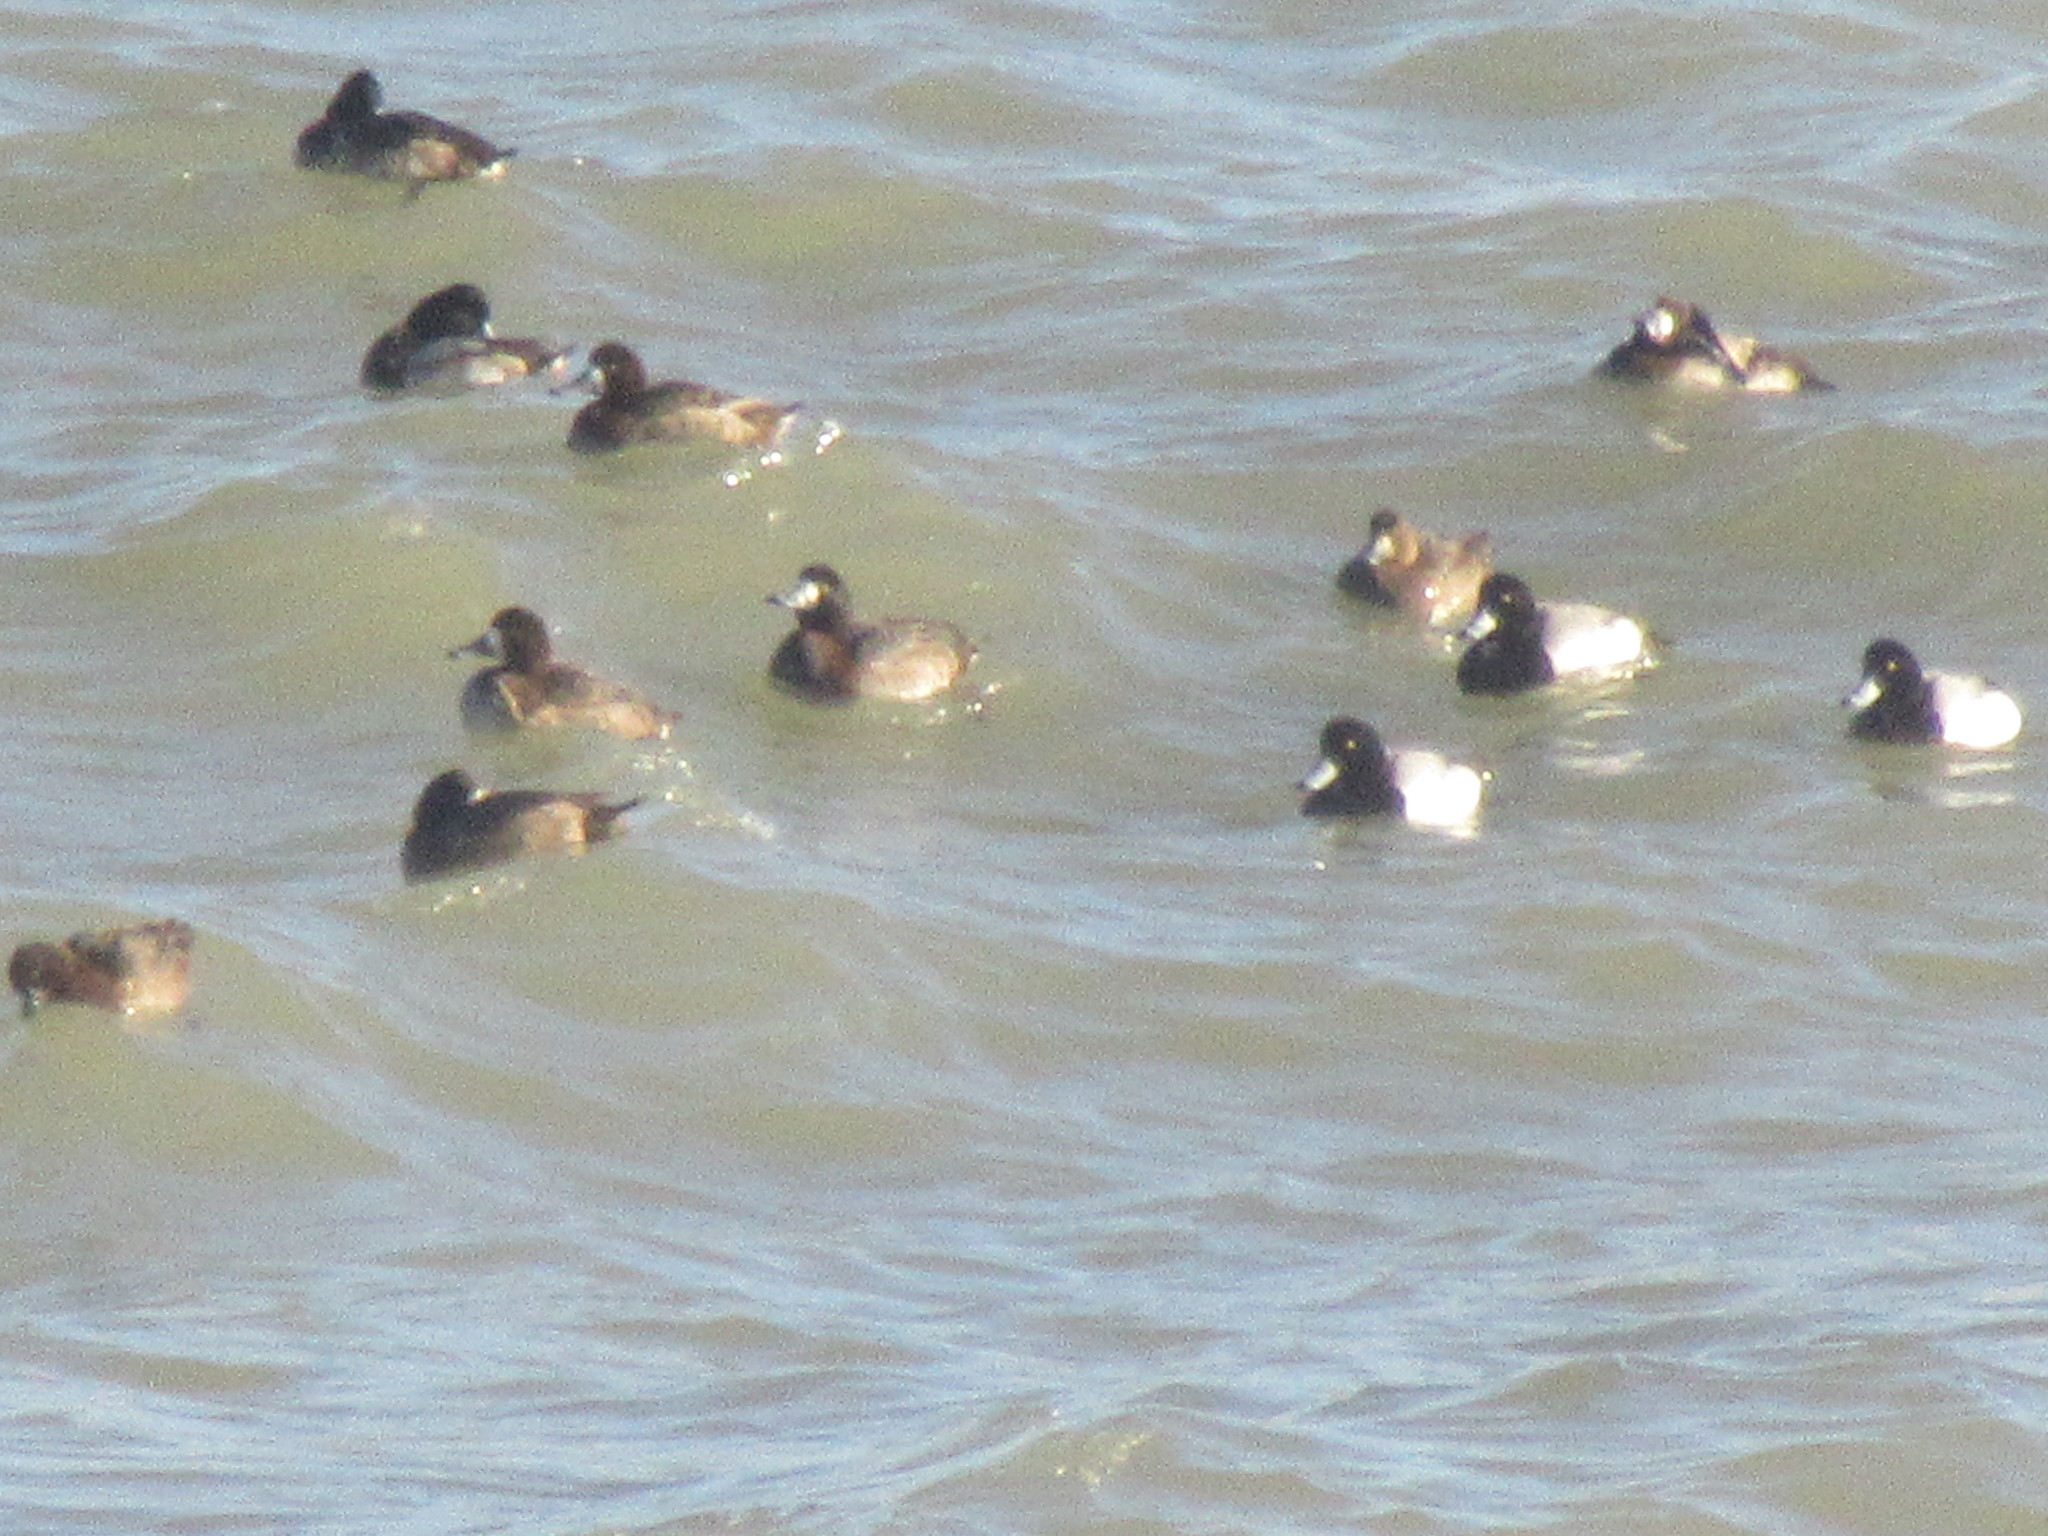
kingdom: Animalia
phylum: Chordata
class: Aves
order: Anseriformes
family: Anatidae
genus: Aythya
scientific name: Aythya marila
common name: Greater scaup
